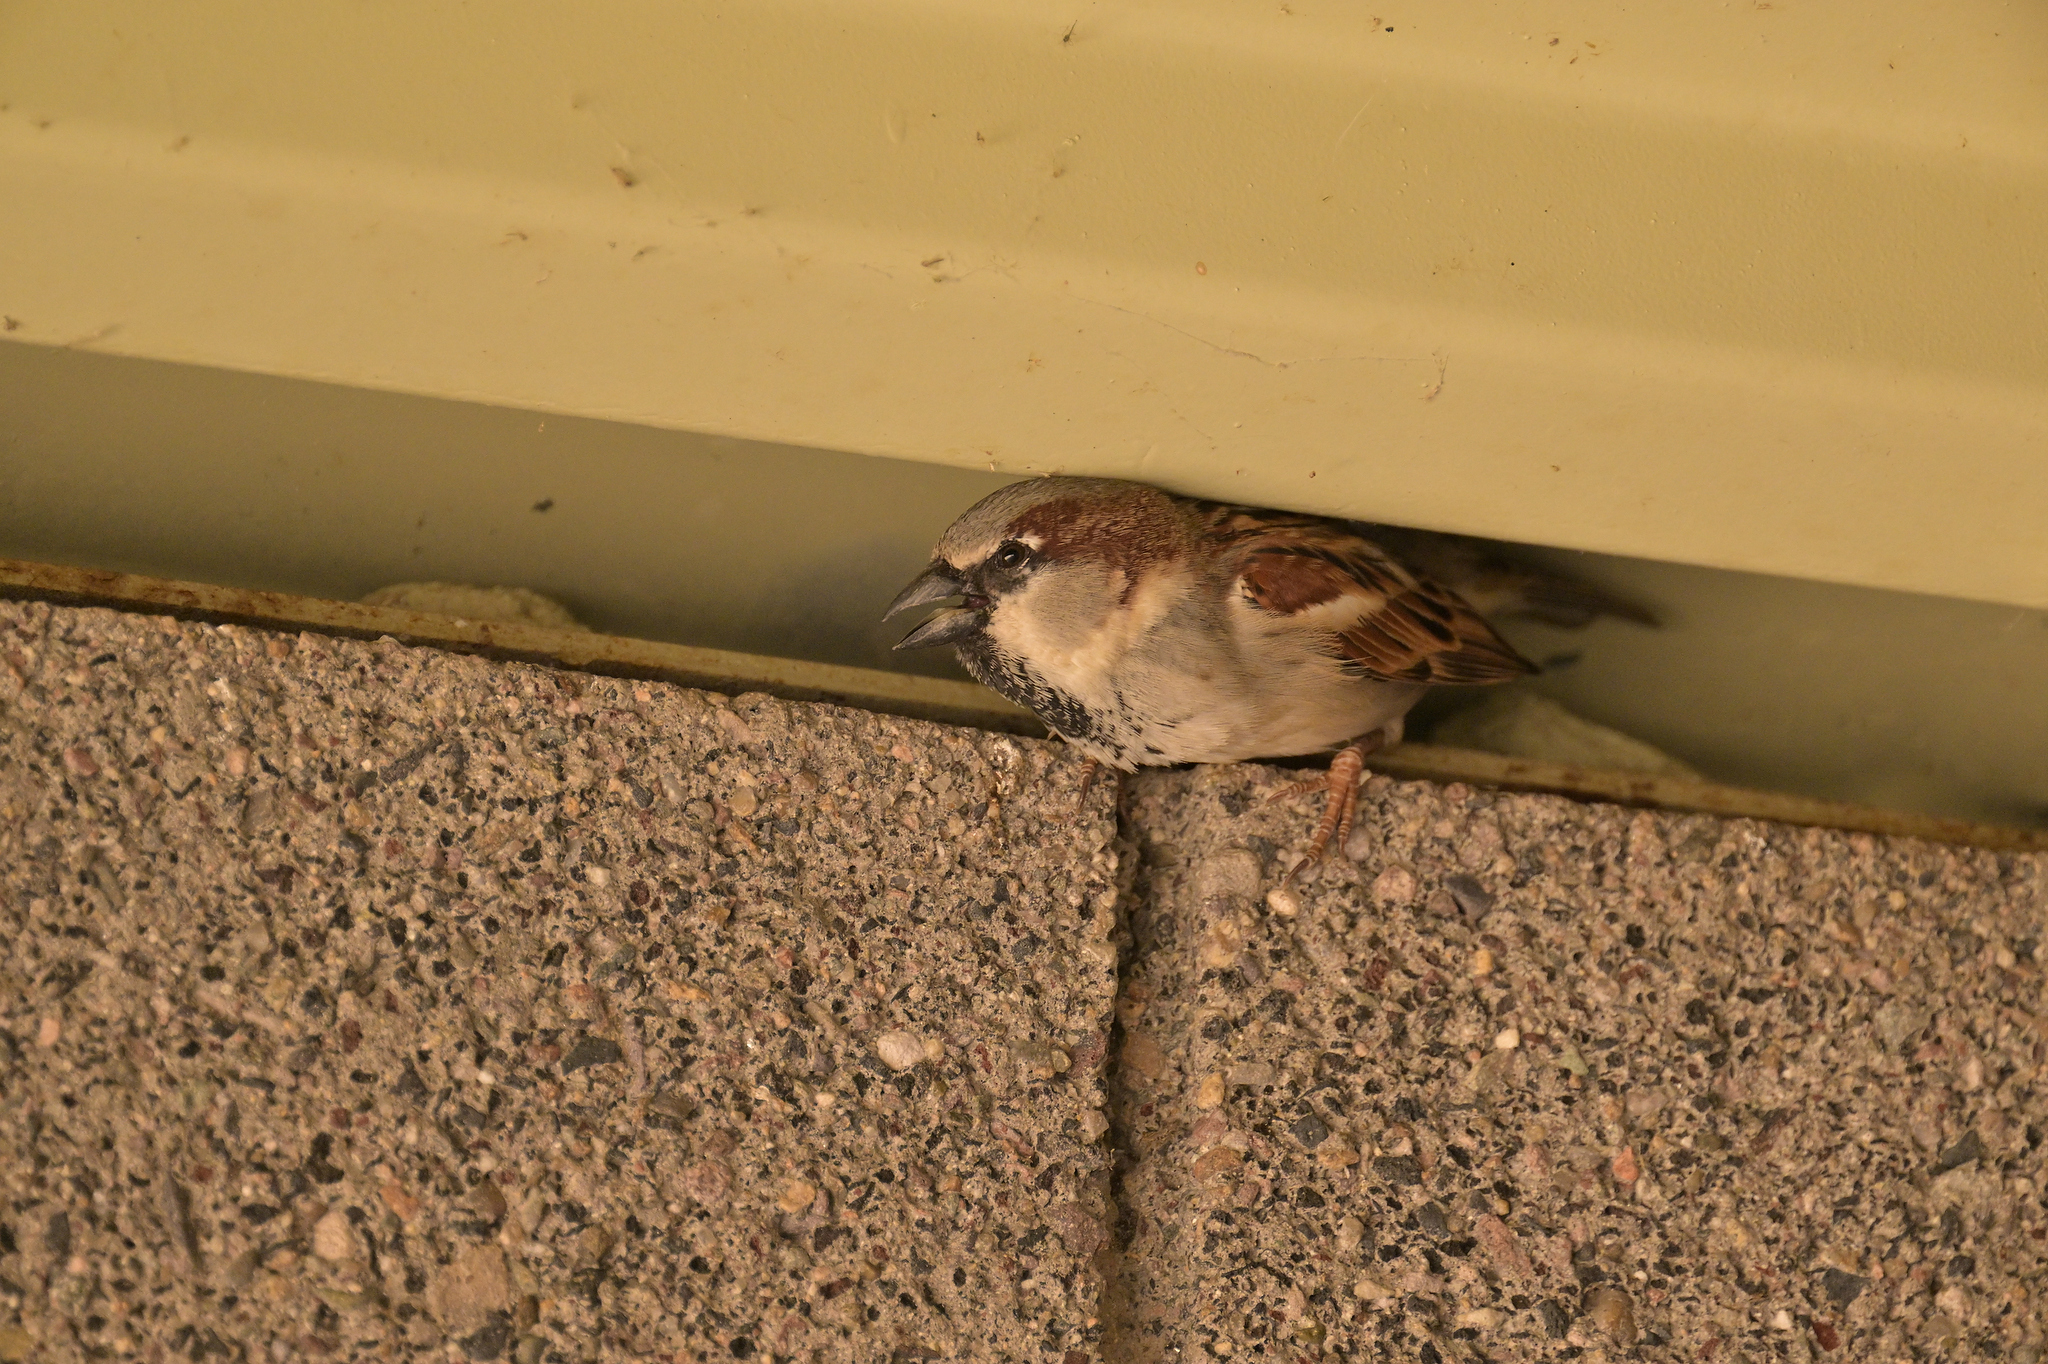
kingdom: Animalia
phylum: Chordata
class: Aves
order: Passeriformes
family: Passeridae
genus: Passer
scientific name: Passer domesticus
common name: House sparrow
